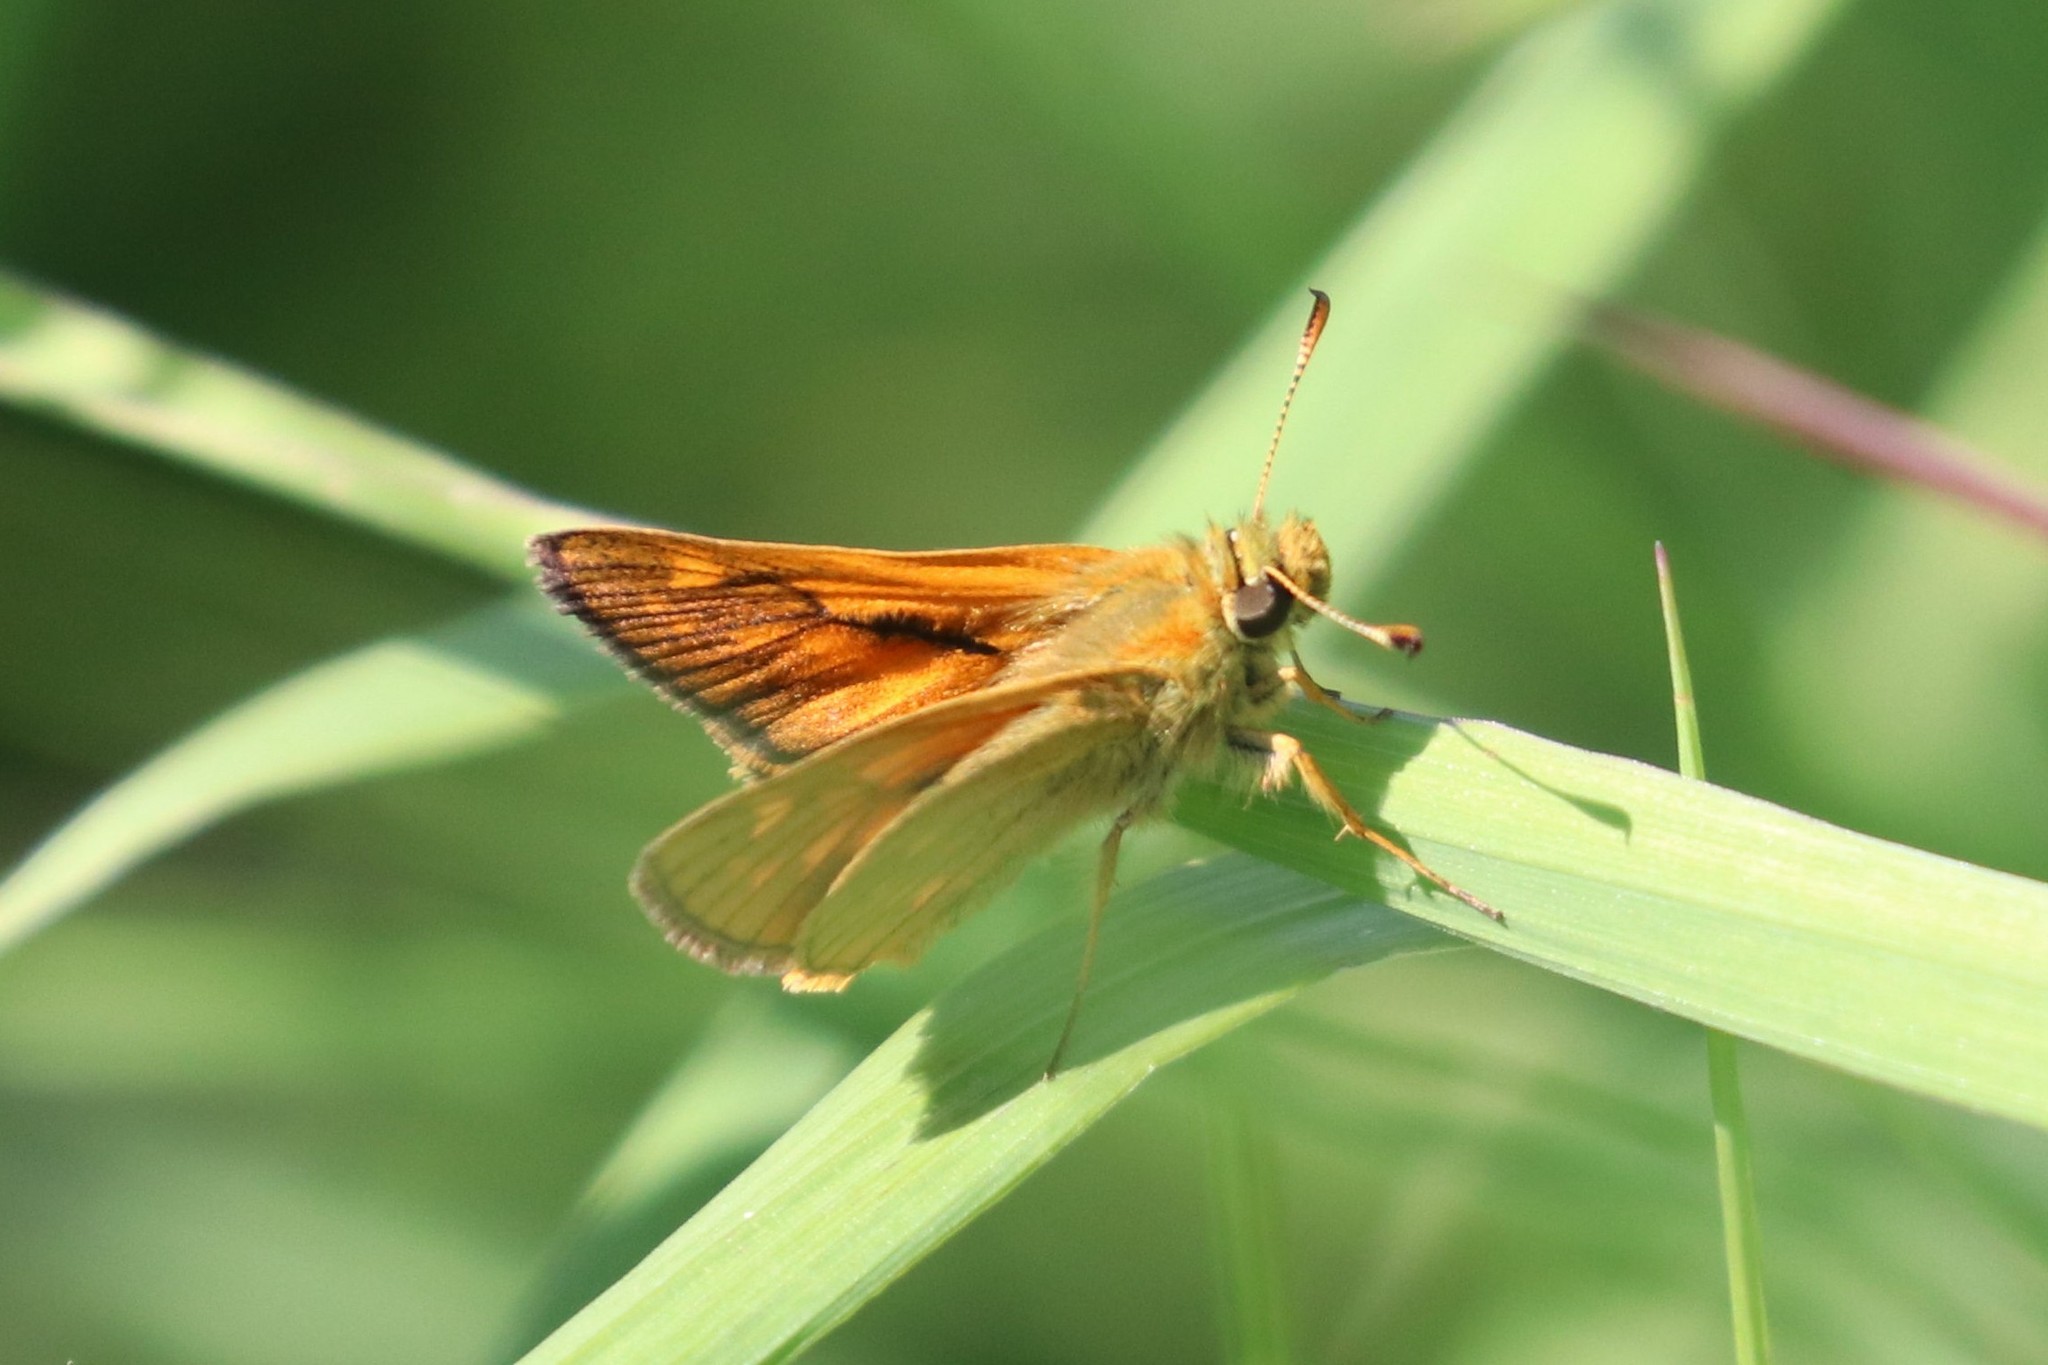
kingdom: Animalia
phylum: Arthropoda
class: Insecta
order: Lepidoptera
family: Hesperiidae
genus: Ochlodes
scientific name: Ochlodes venata
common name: Large skipper
